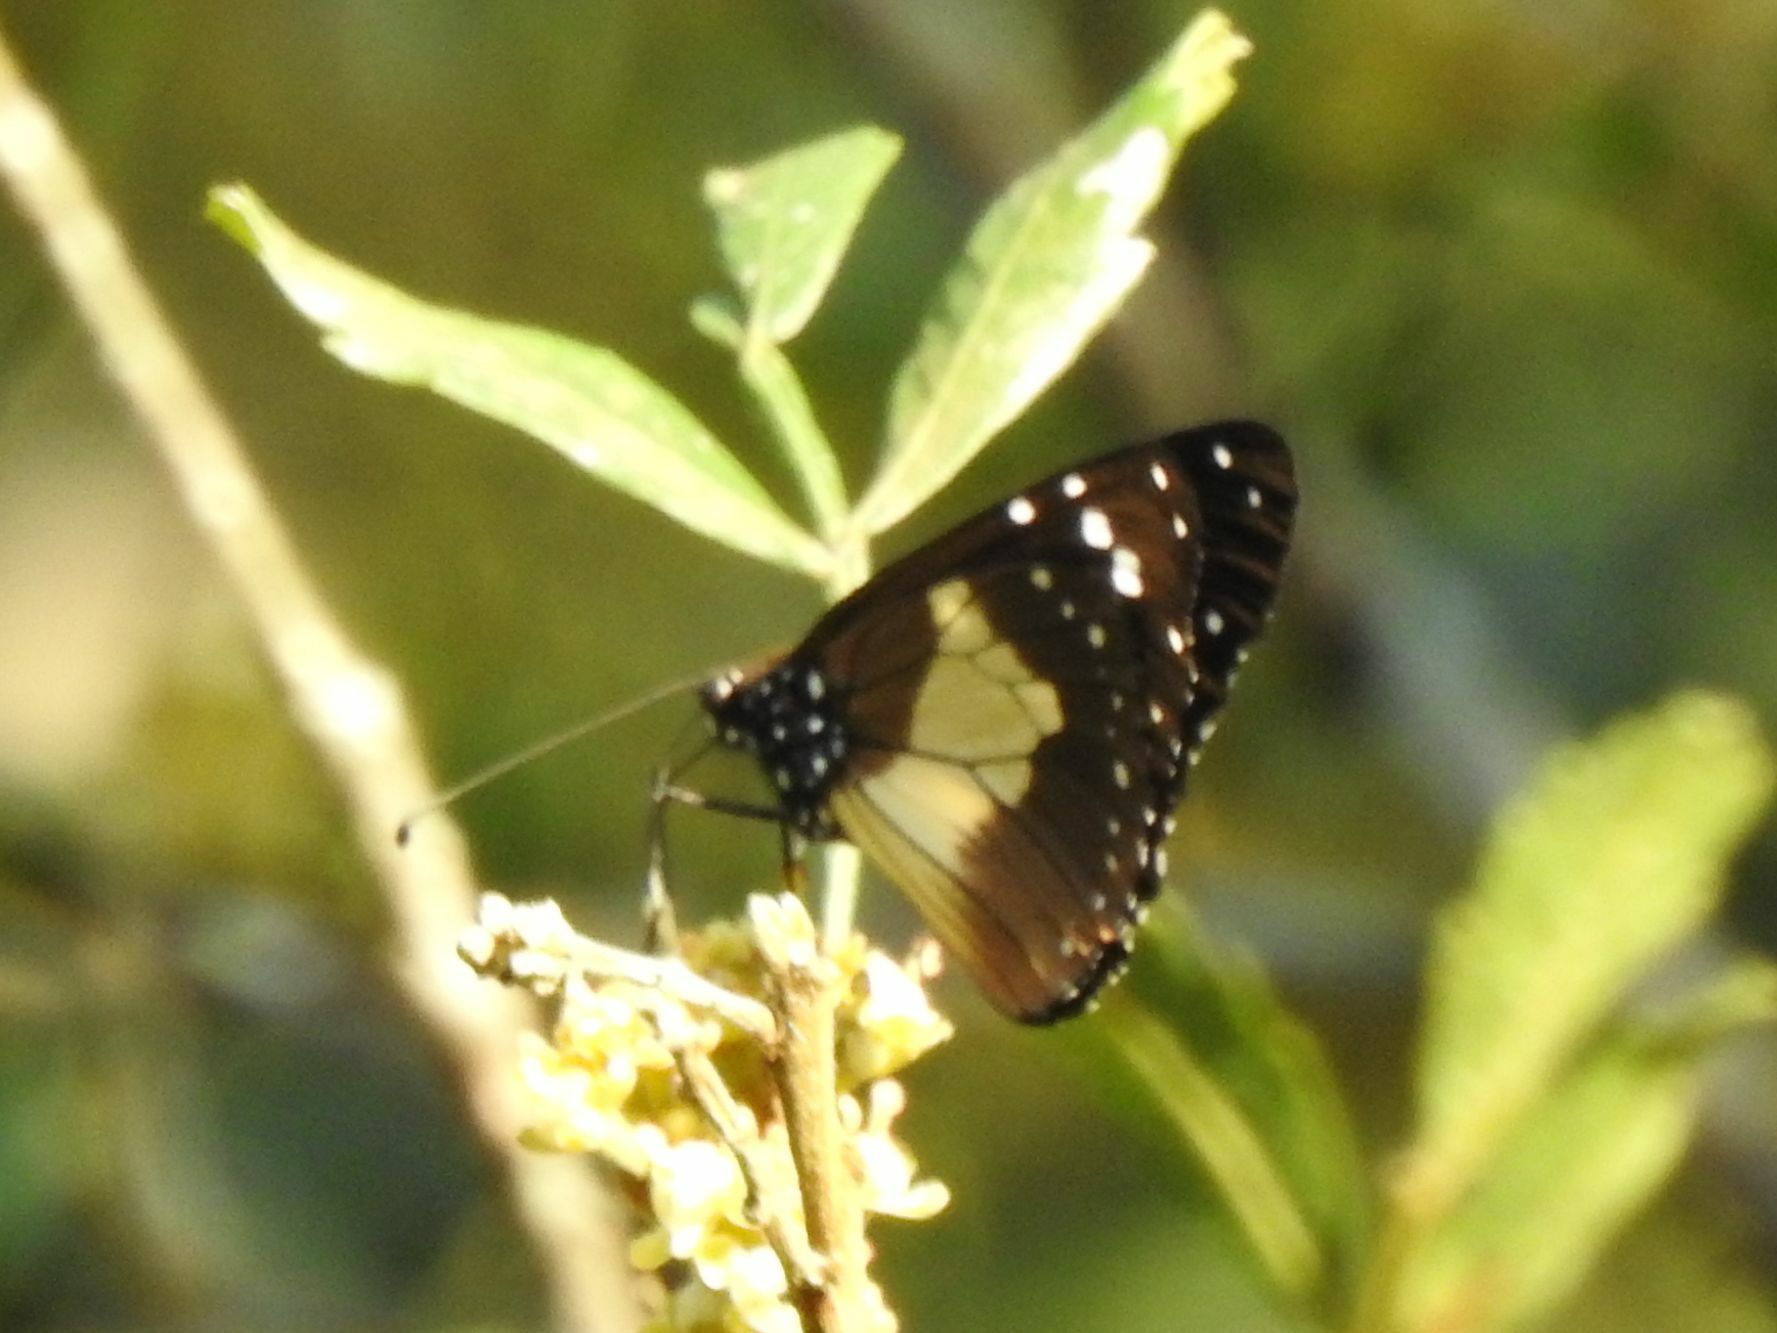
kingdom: Animalia
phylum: Arthropoda
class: Insecta
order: Lepidoptera
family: Nymphalidae
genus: Amauris
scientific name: Amauris albimaculata
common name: Layman
